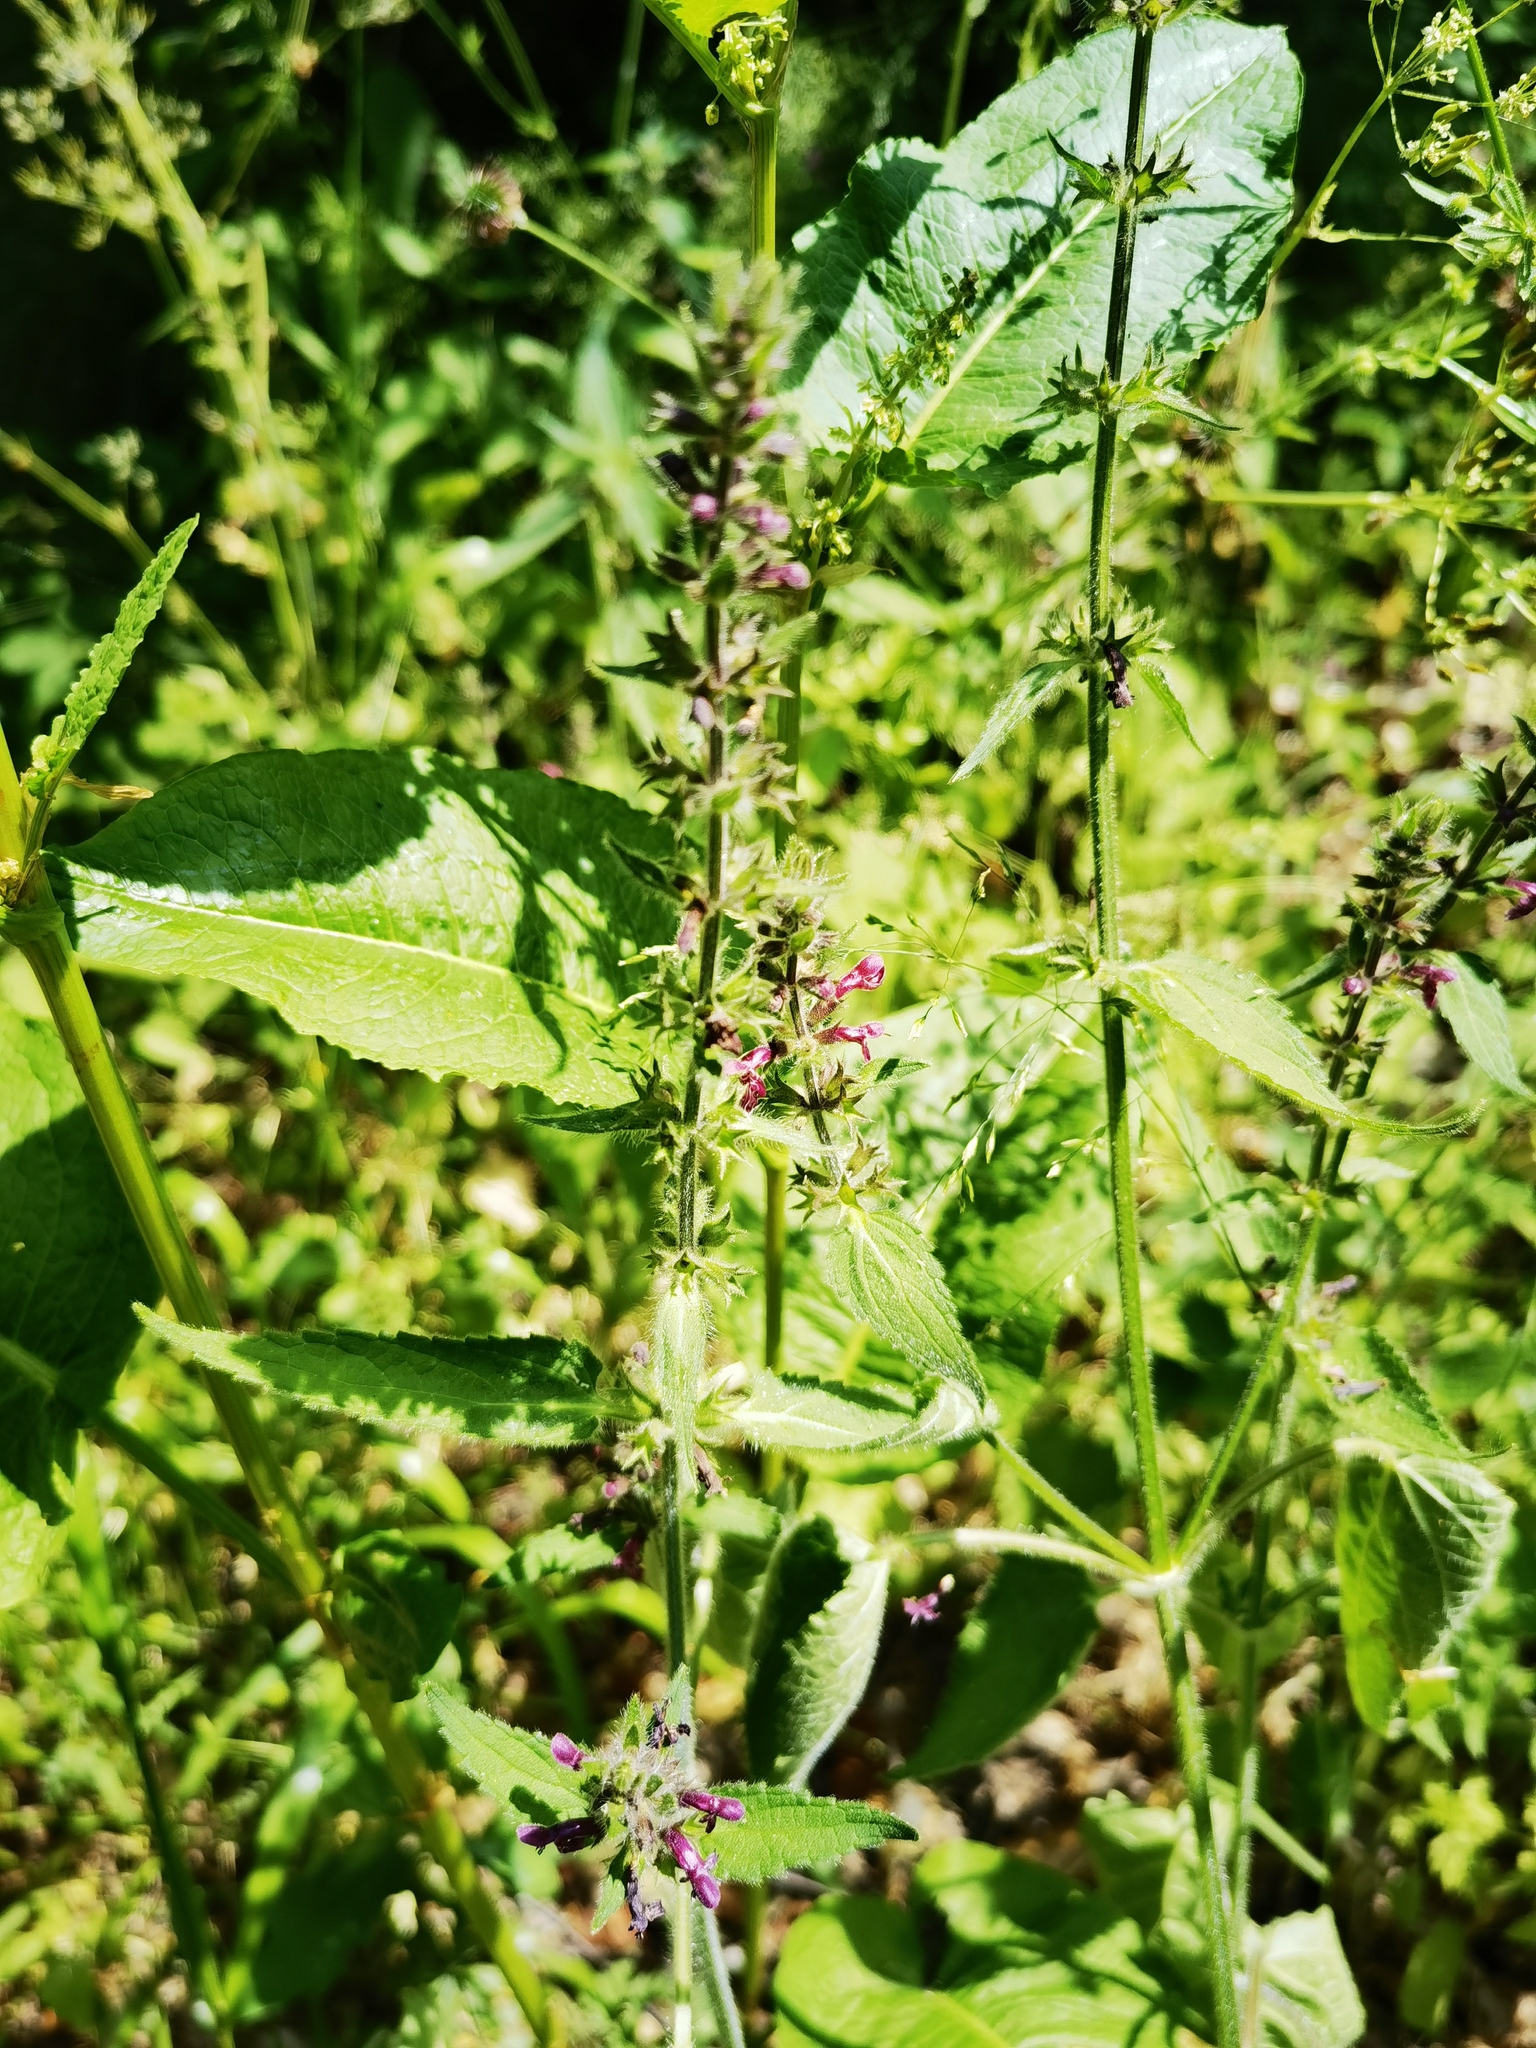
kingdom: Plantae
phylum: Tracheophyta
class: Magnoliopsida
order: Lamiales
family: Lamiaceae
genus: Stachys
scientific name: Stachys sylvatica
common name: Hedge woundwort
